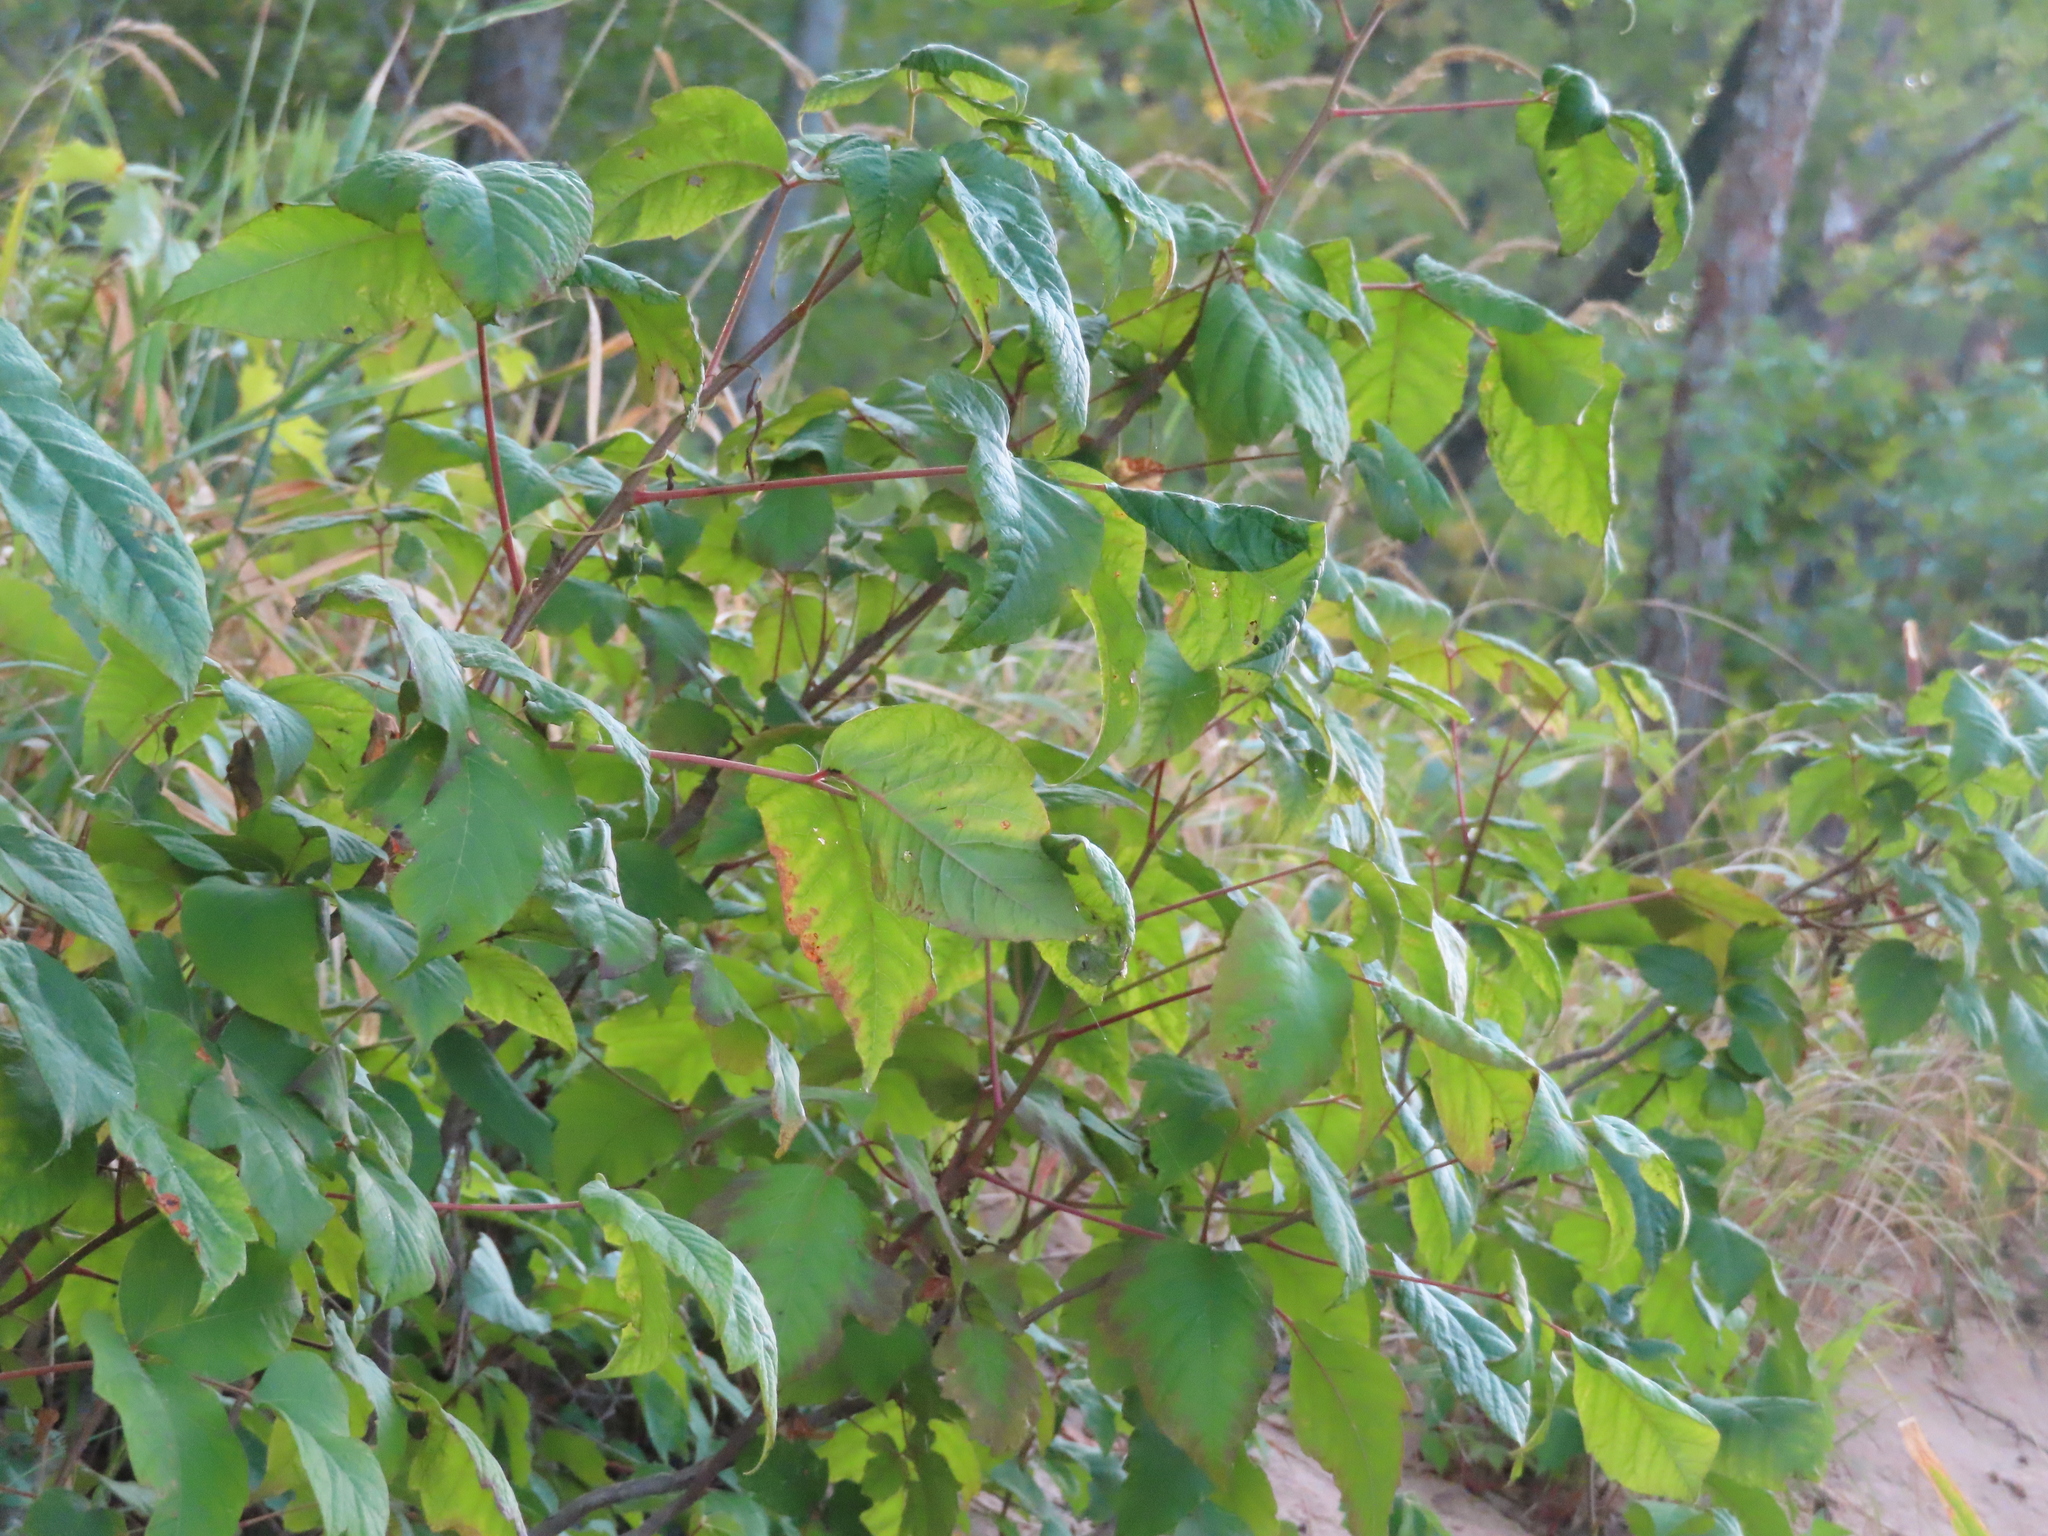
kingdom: Plantae
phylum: Tracheophyta
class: Magnoliopsida
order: Sapindales
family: Anacardiaceae
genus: Toxicodendron
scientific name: Toxicodendron radicans
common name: Poison ivy
